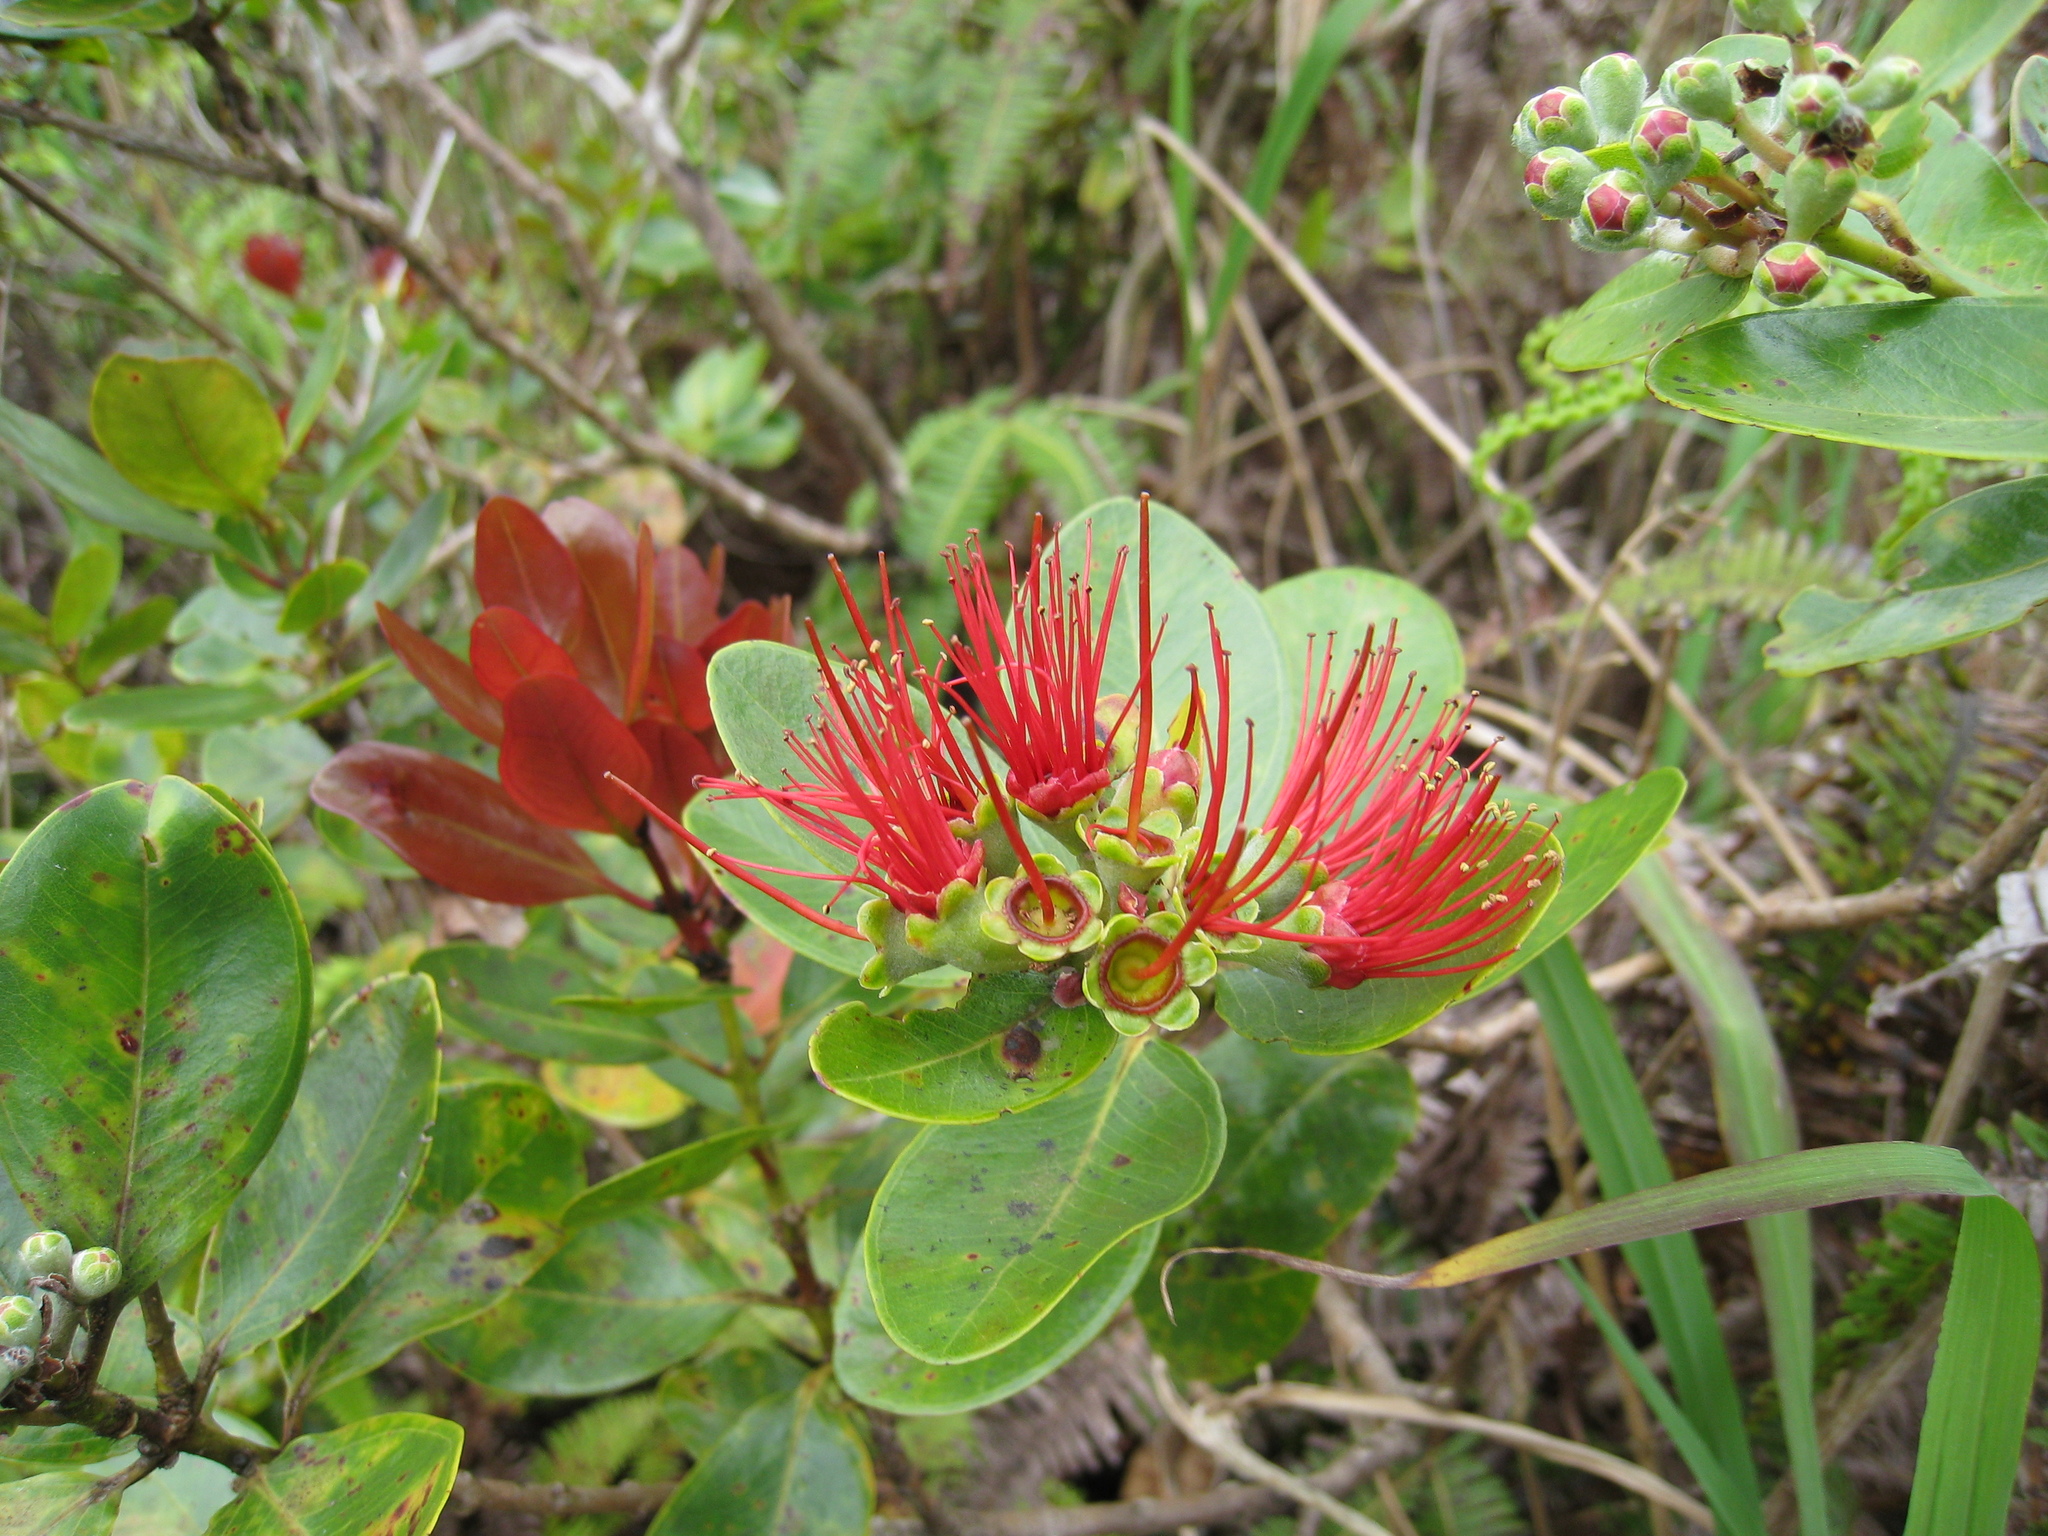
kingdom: Plantae
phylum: Tracheophyta
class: Magnoliopsida
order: Myrtales
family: Myrtaceae
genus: Metrosideros
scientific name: Metrosideros polymorpha
